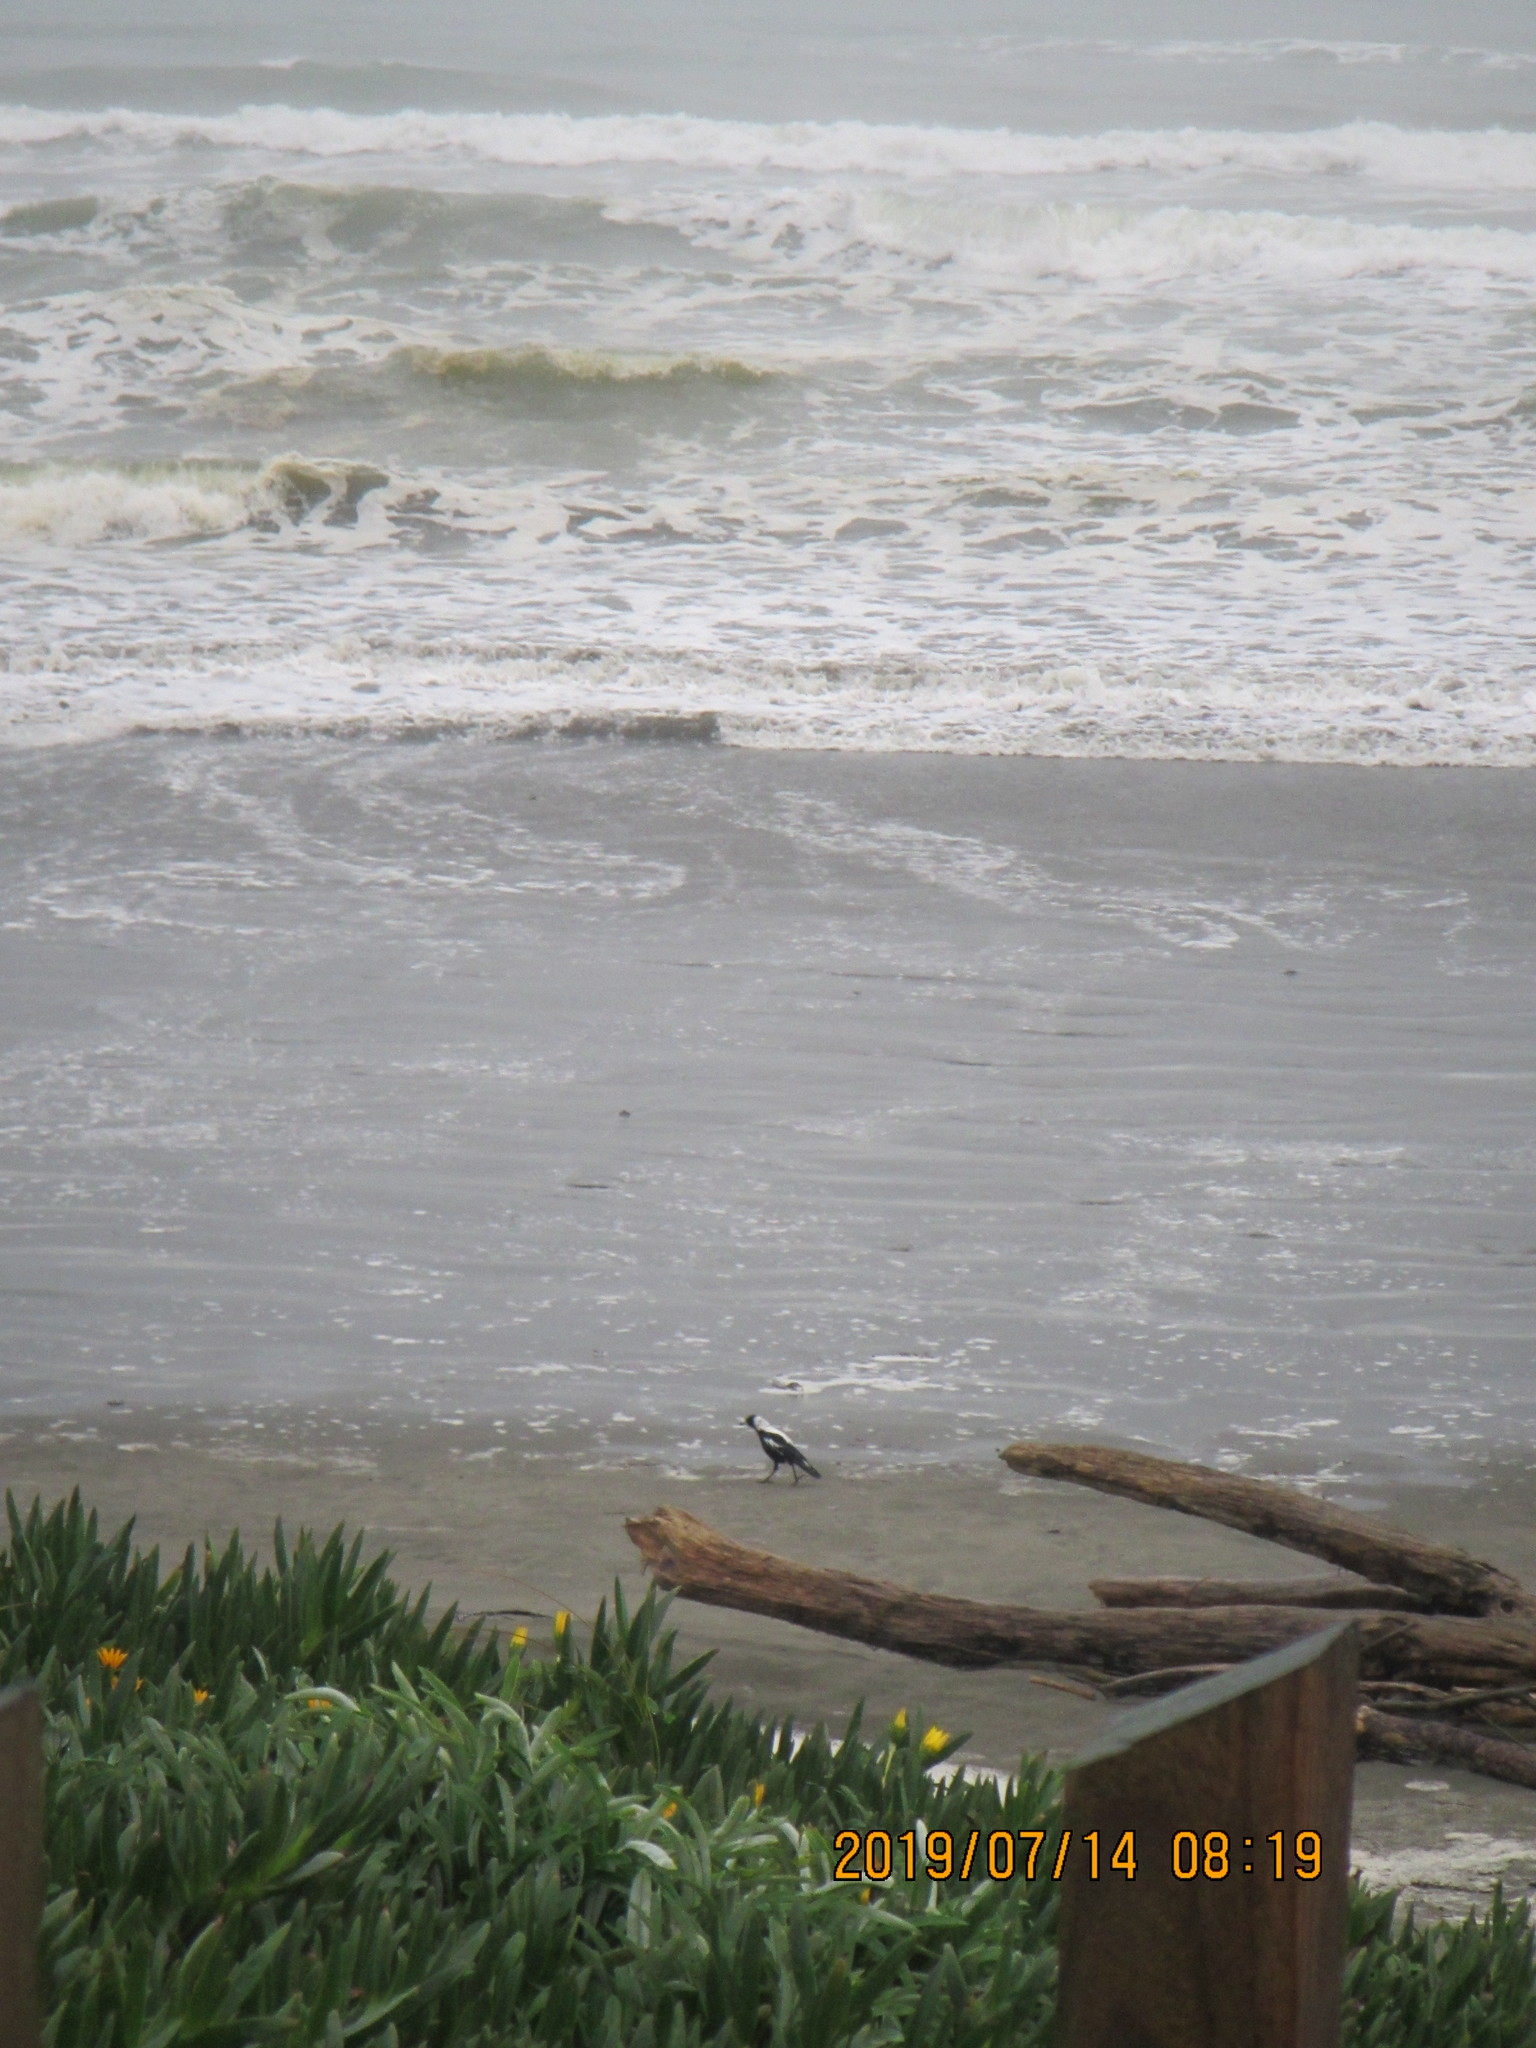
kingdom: Animalia
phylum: Chordata
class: Aves
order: Passeriformes
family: Cracticidae
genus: Gymnorhina
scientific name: Gymnorhina tibicen
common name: Australian magpie
